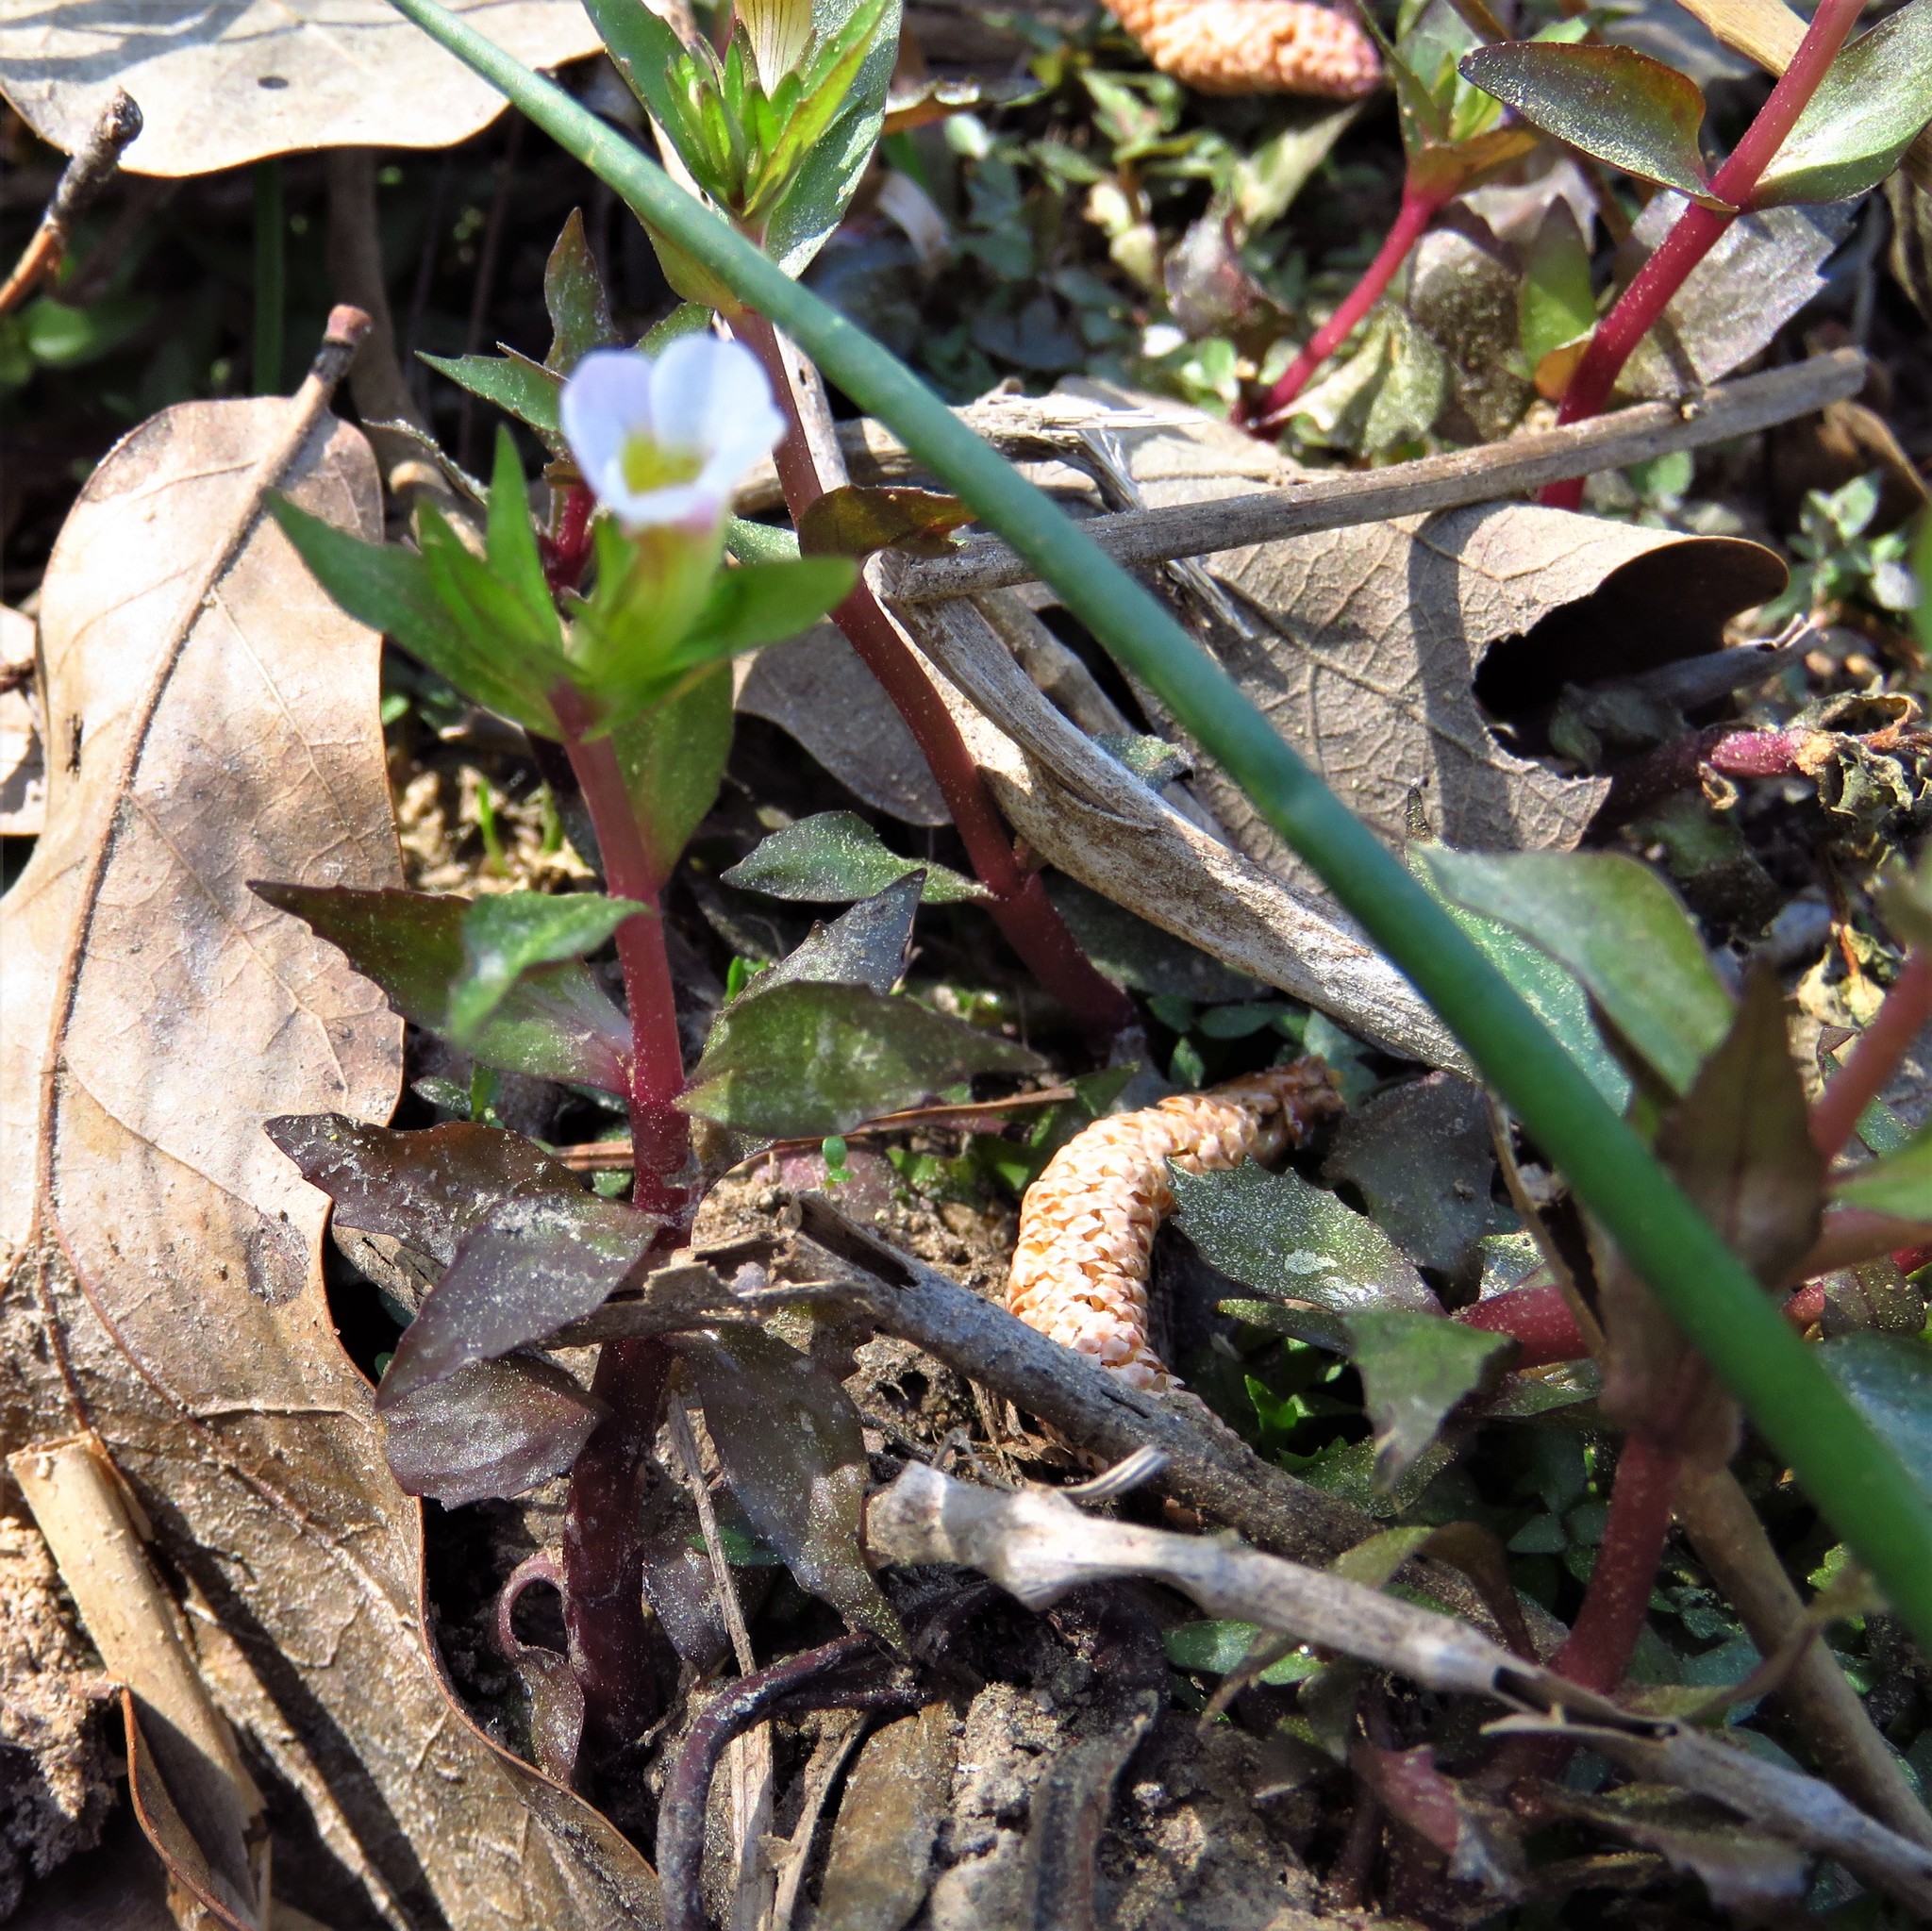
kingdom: Plantae
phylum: Tracheophyta
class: Magnoliopsida
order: Lamiales
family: Plantaginaceae
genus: Gratiola
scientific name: Gratiola neglecta
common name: American hedge-hyssop
